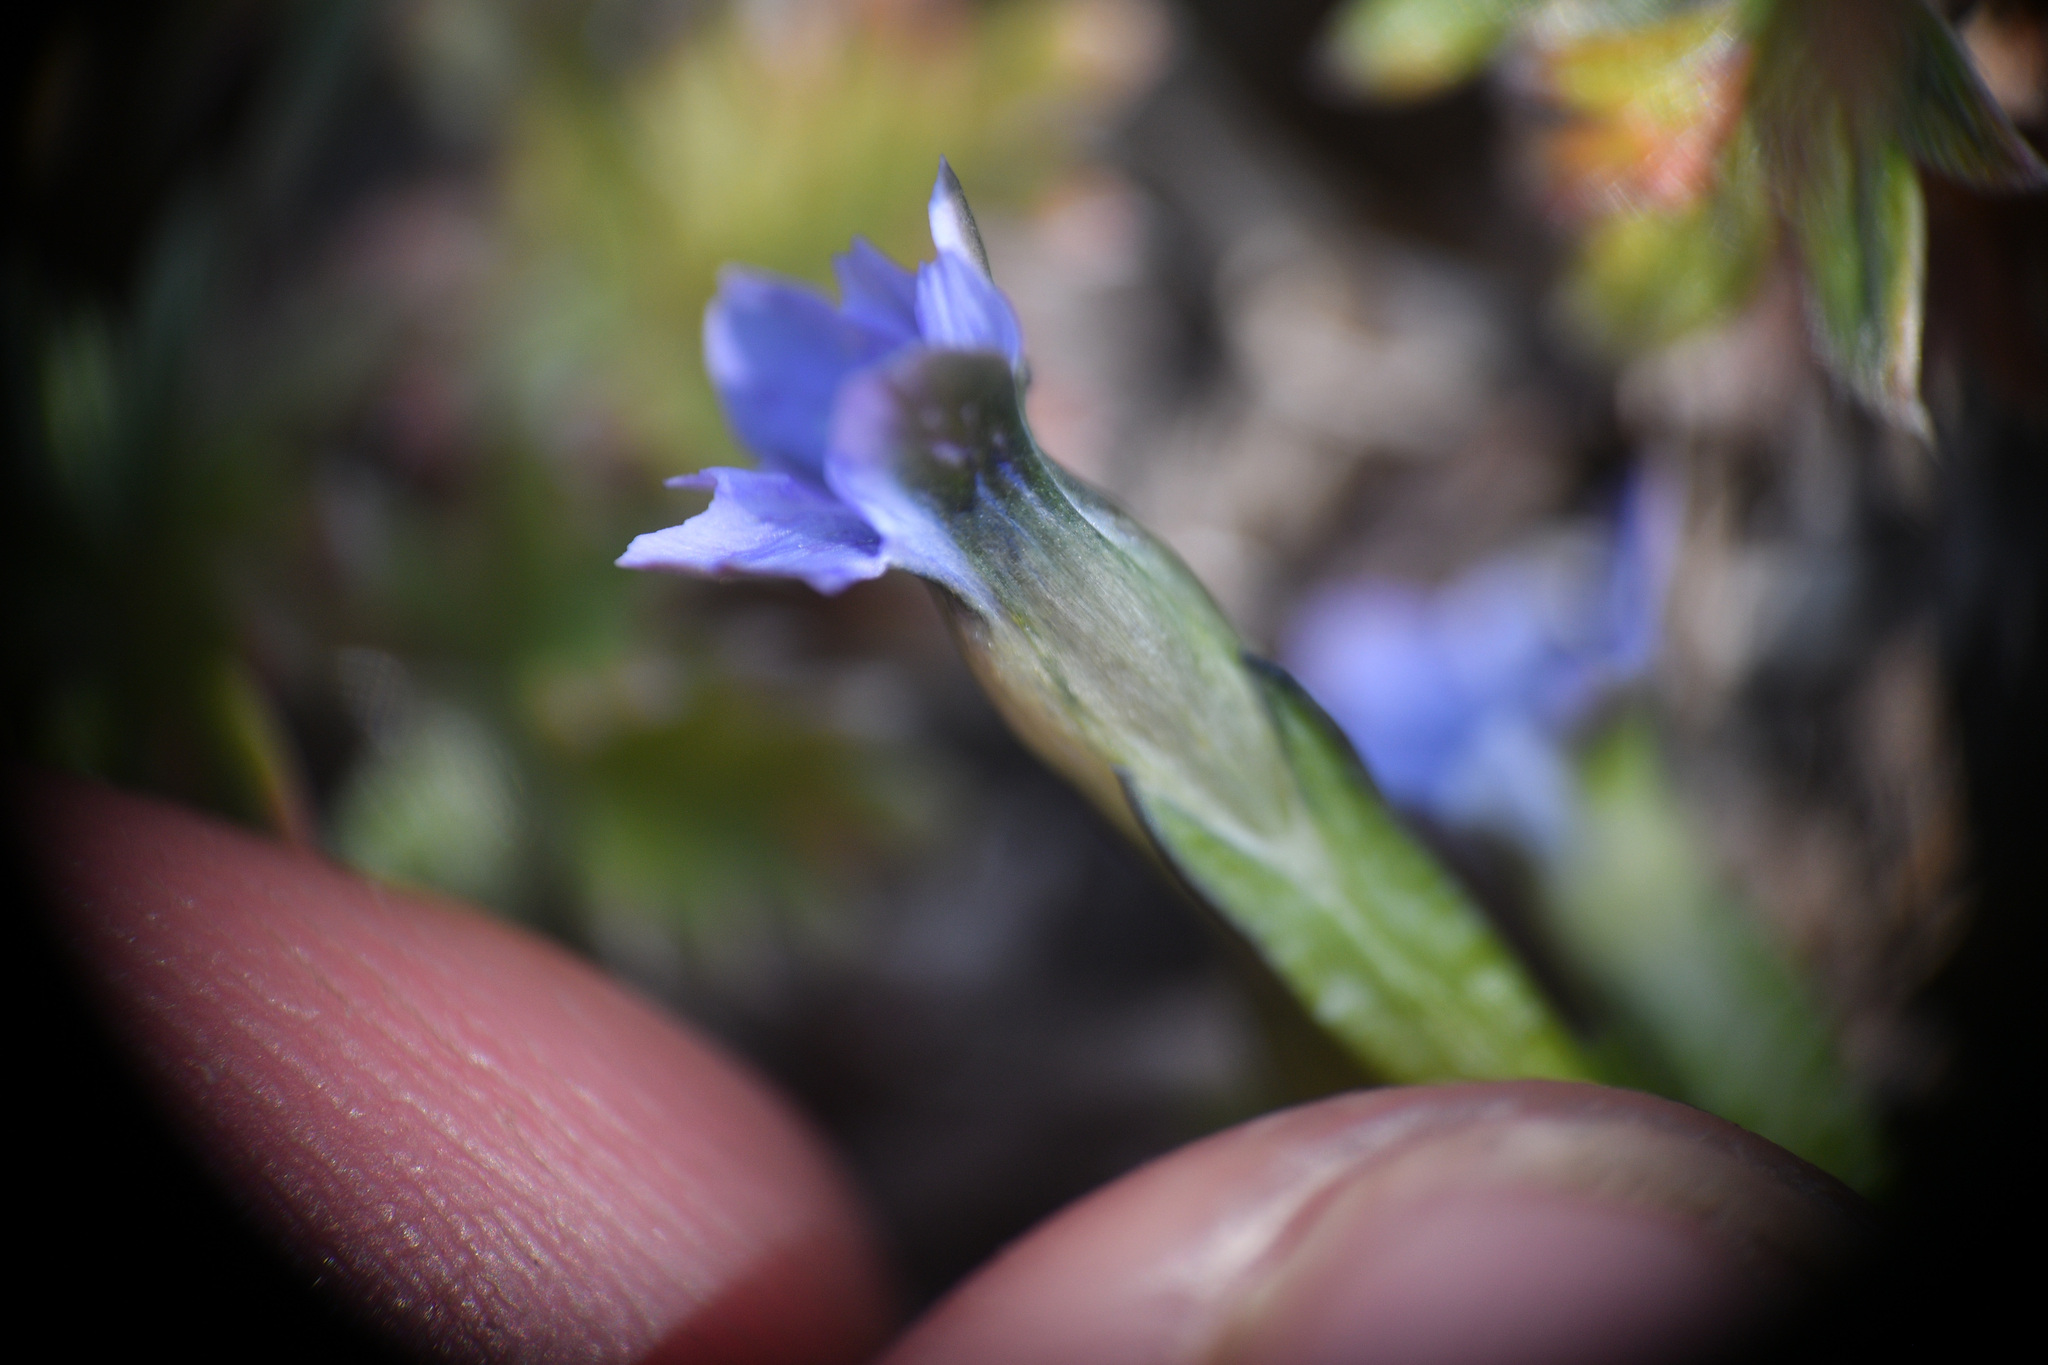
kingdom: Plantae
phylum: Tracheophyta
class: Magnoliopsida
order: Gentianales
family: Gentianaceae
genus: Gentiana
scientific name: Gentiana prostrata
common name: Moss gentian
